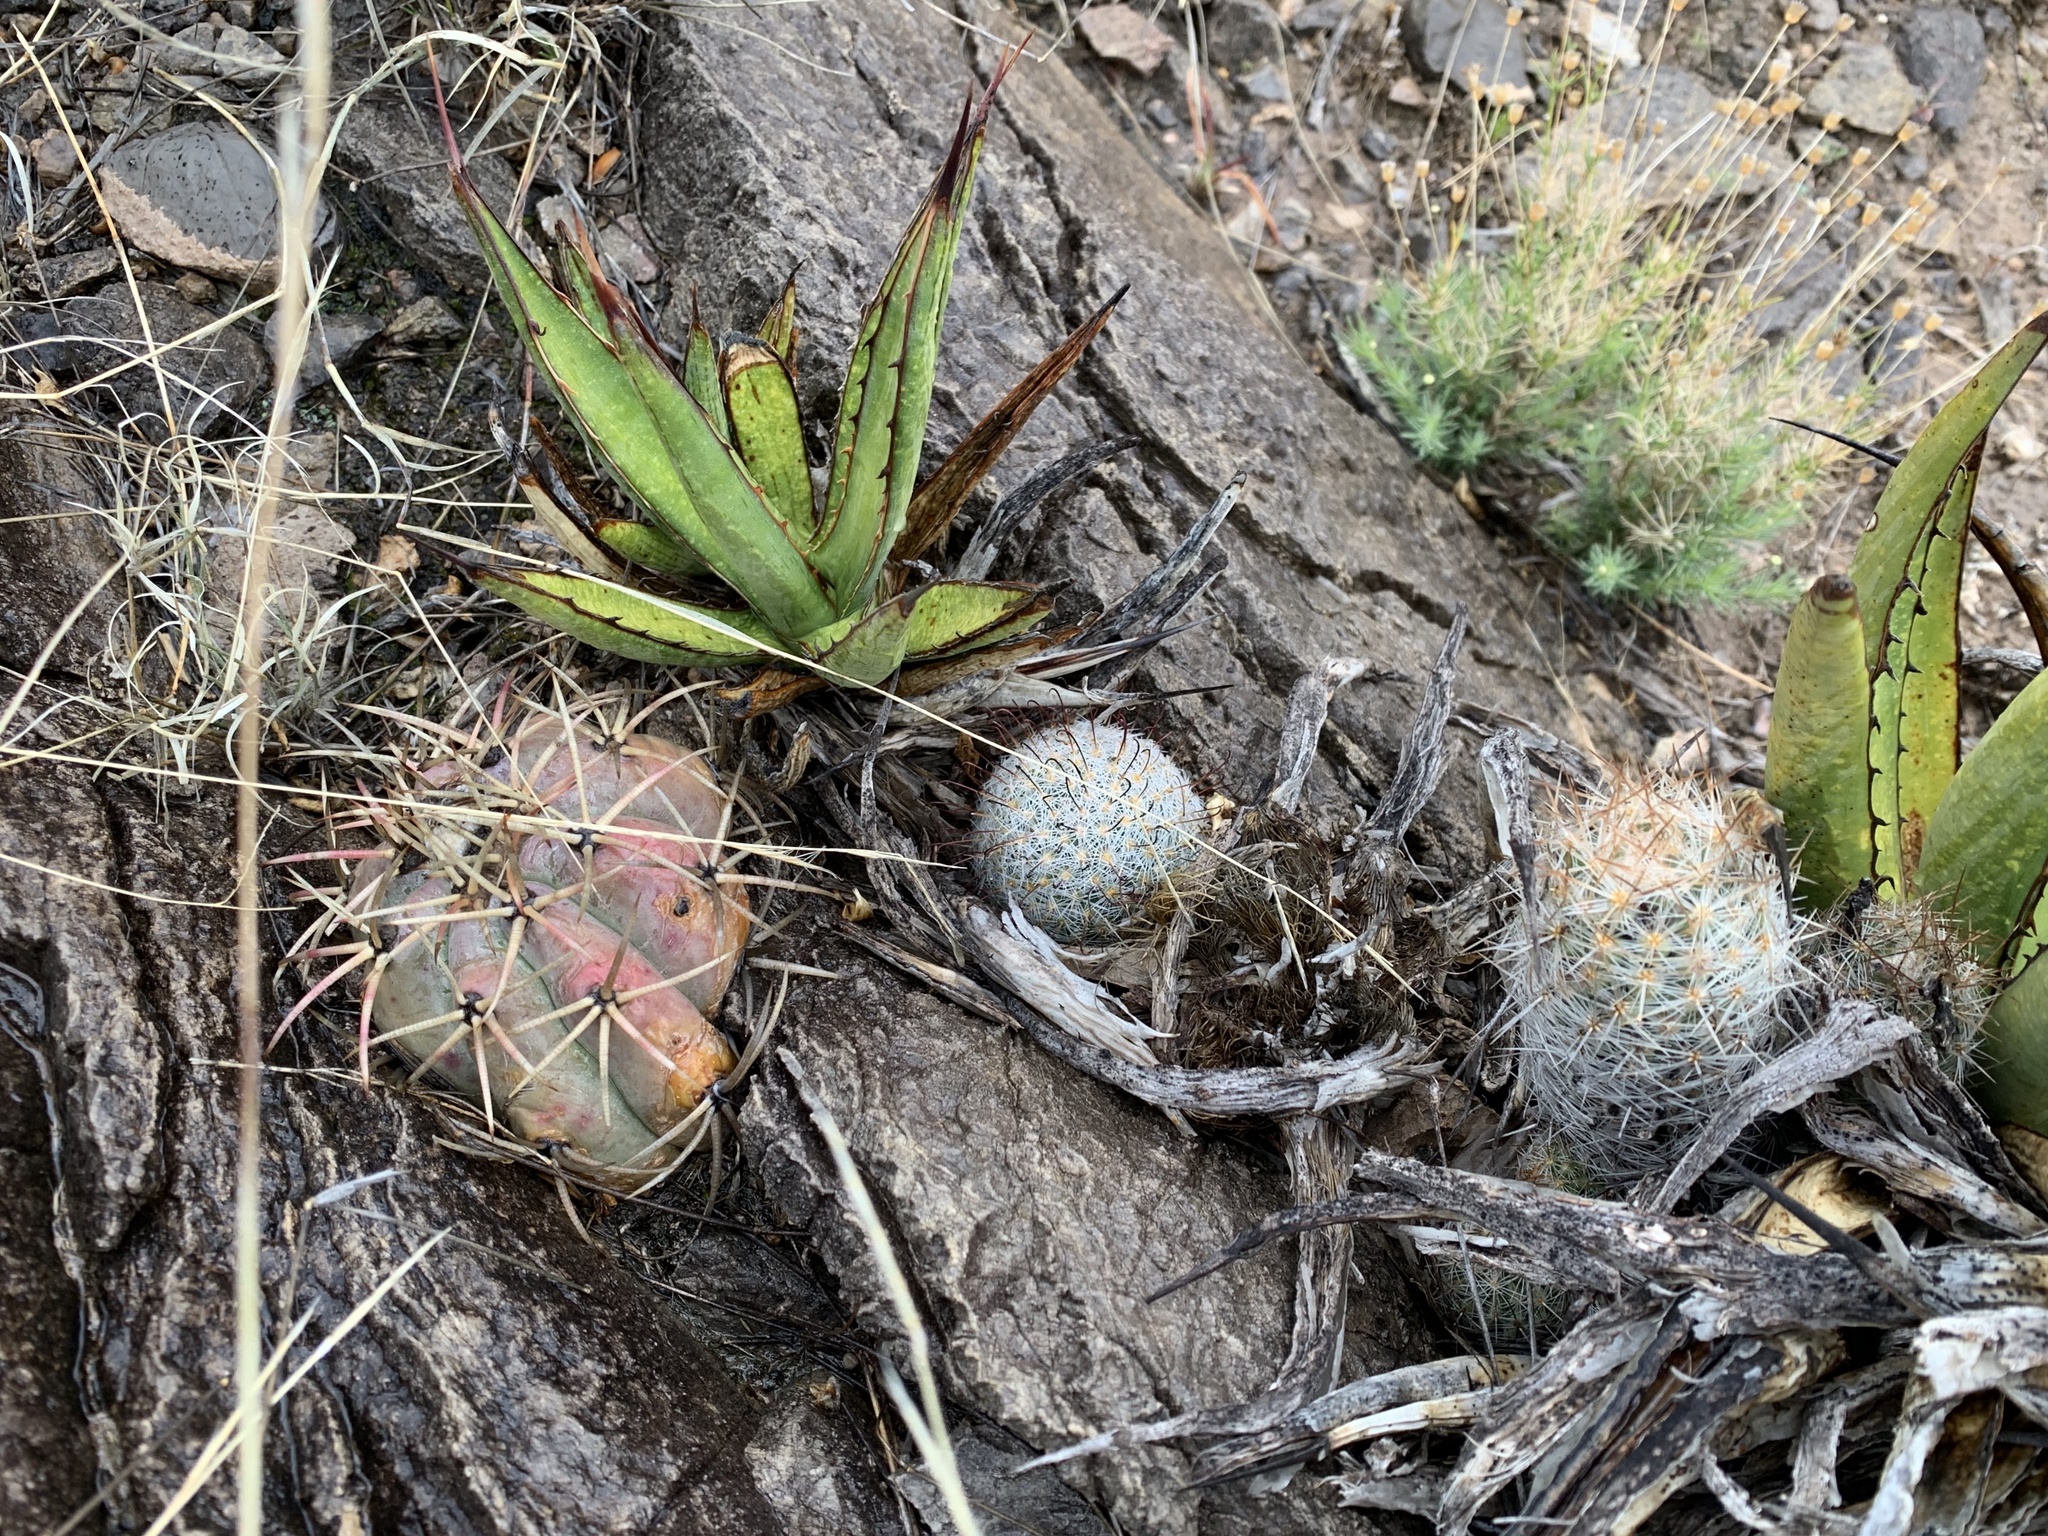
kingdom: Plantae
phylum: Tracheophyta
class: Magnoliopsida
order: Caryophyllales
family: Cactaceae
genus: Echinocactus
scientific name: Echinocactus horizonthalonius
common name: Devilshead
